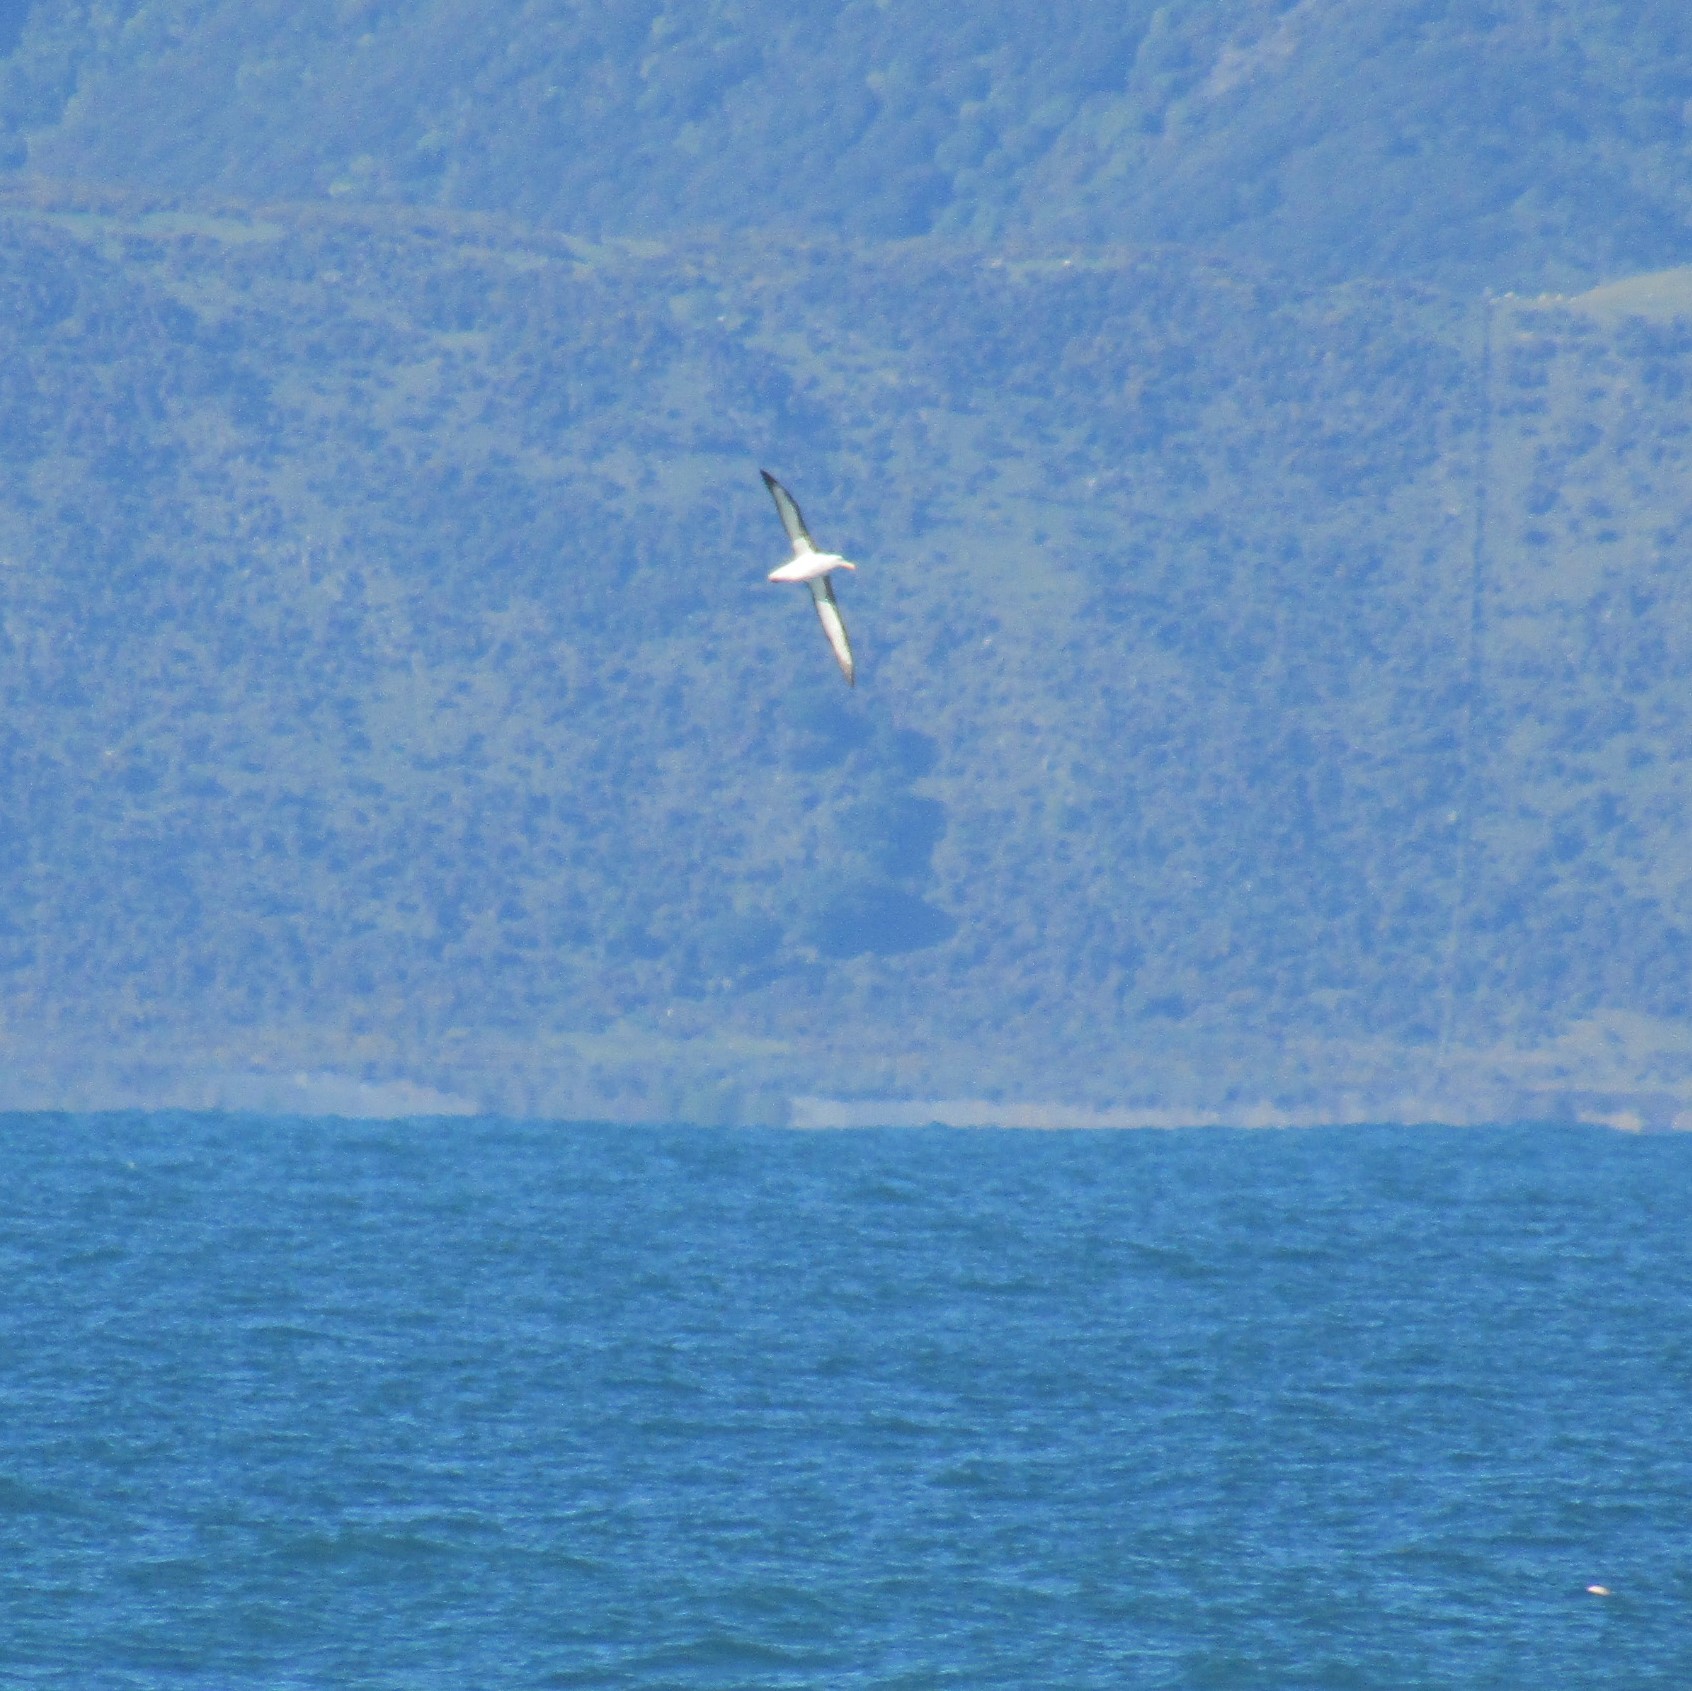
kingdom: Animalia
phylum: Chordata
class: Aves
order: Procellariiformes
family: Diomedeidae
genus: Thalassarche
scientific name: Thalassarche melanophris
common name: Black-browed albatross
